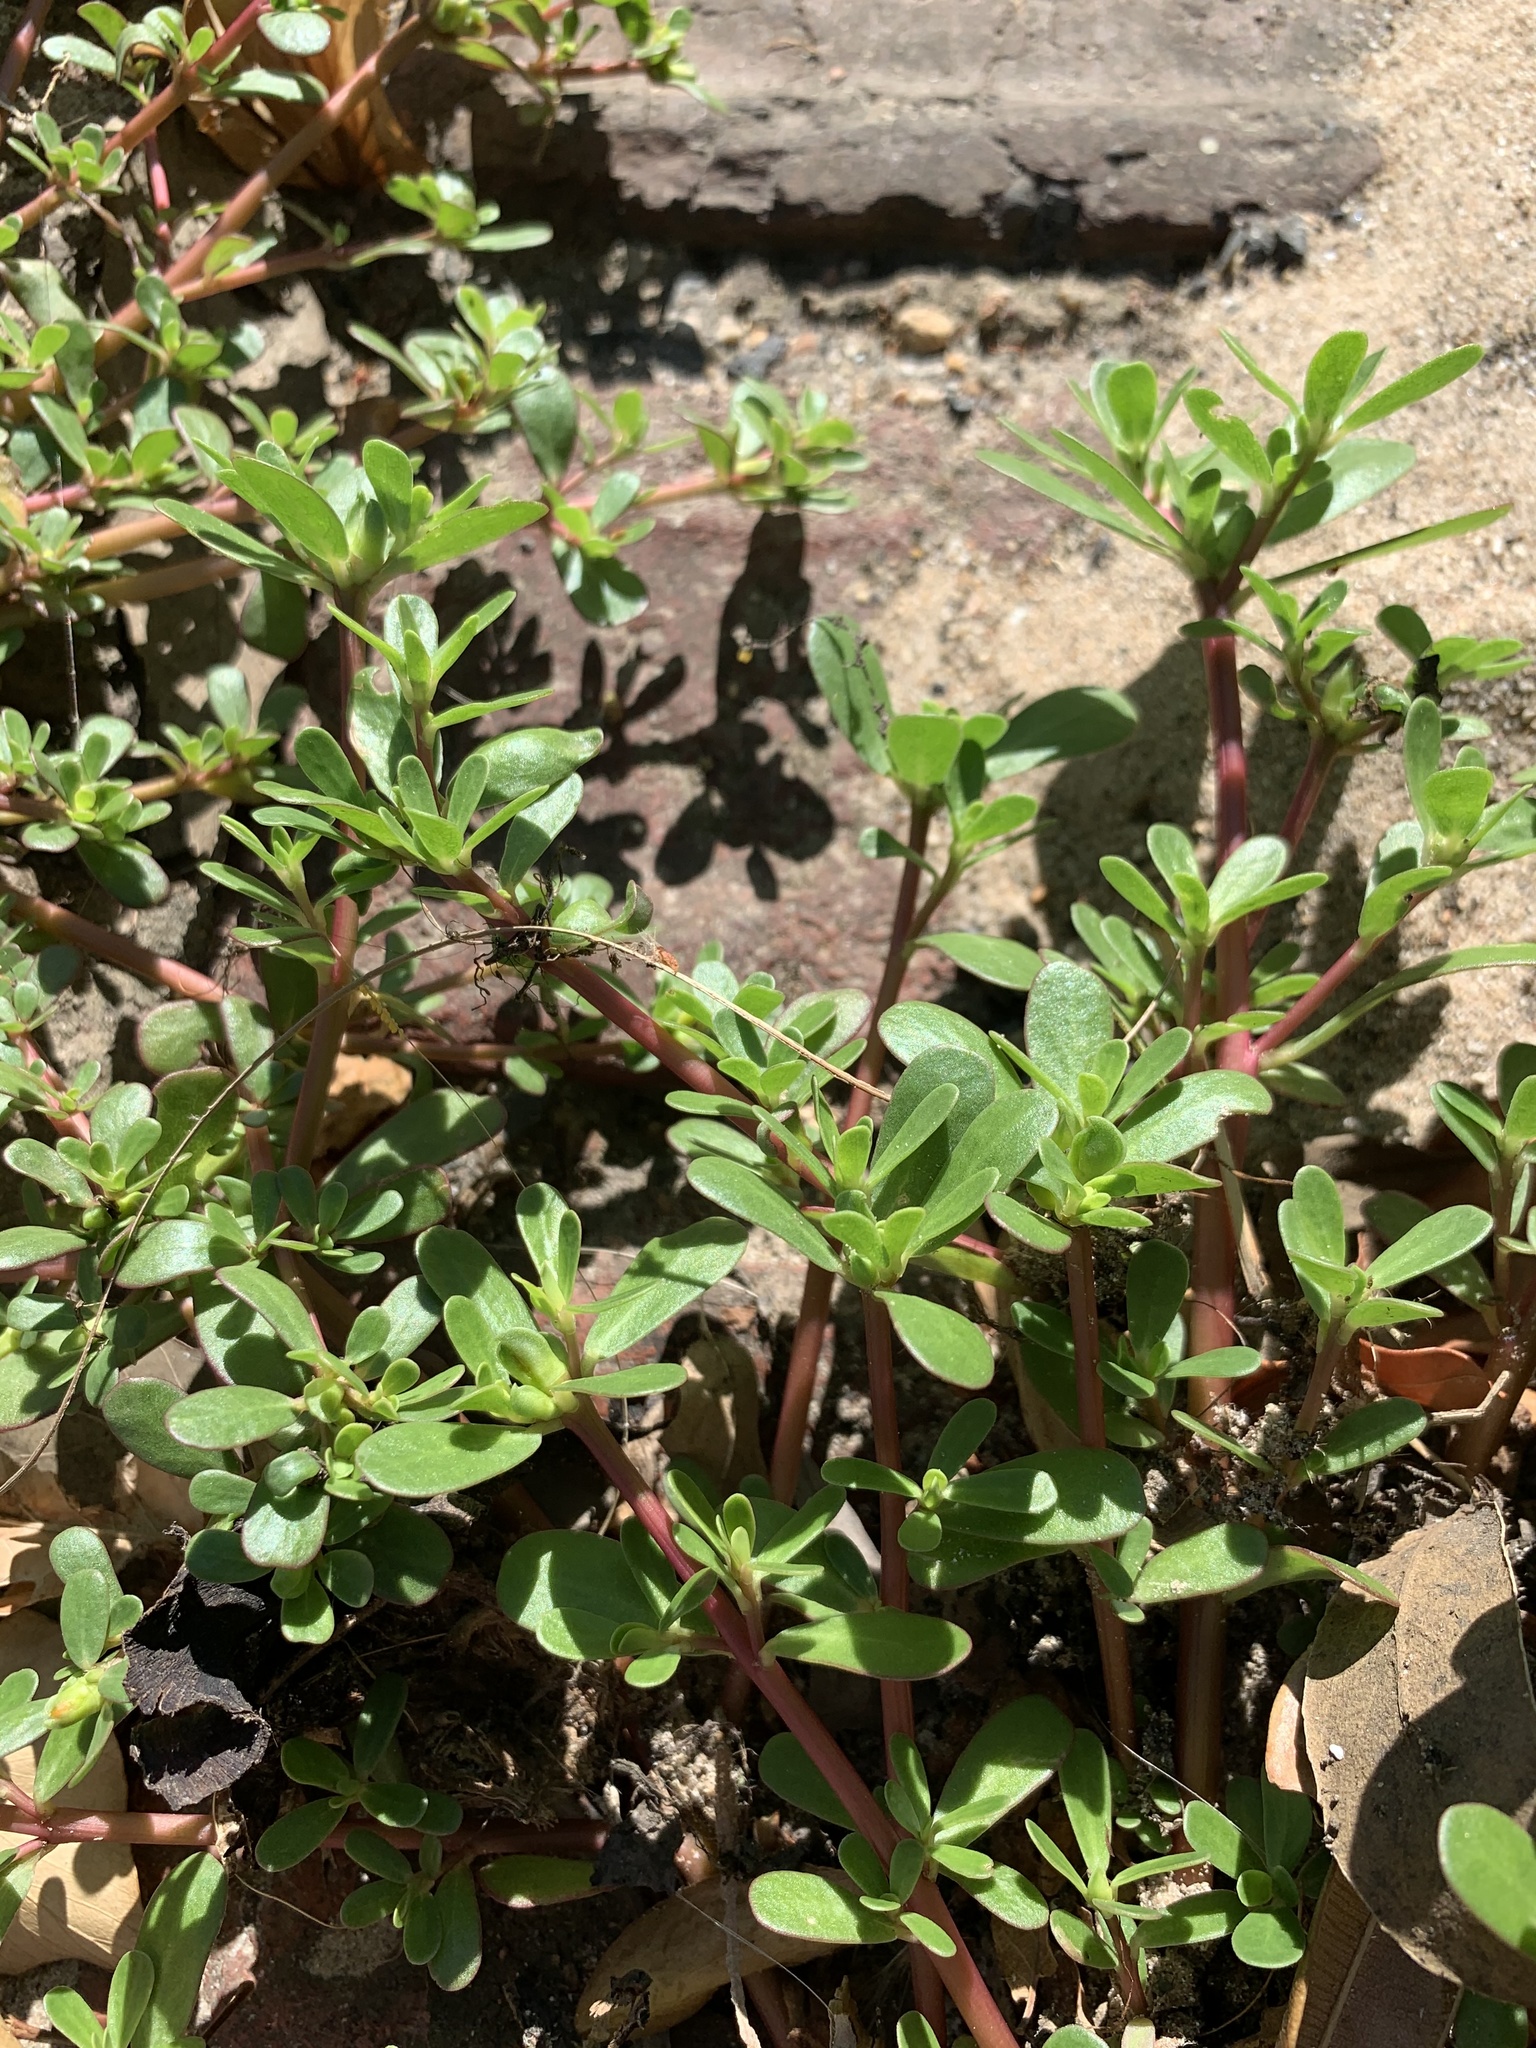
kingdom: Plantae
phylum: Tracheophyta
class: Magnoliopsida
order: Caryophyllales
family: Portulacaceae
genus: Portulaca
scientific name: Portulaca oleracea
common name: Common purslane
